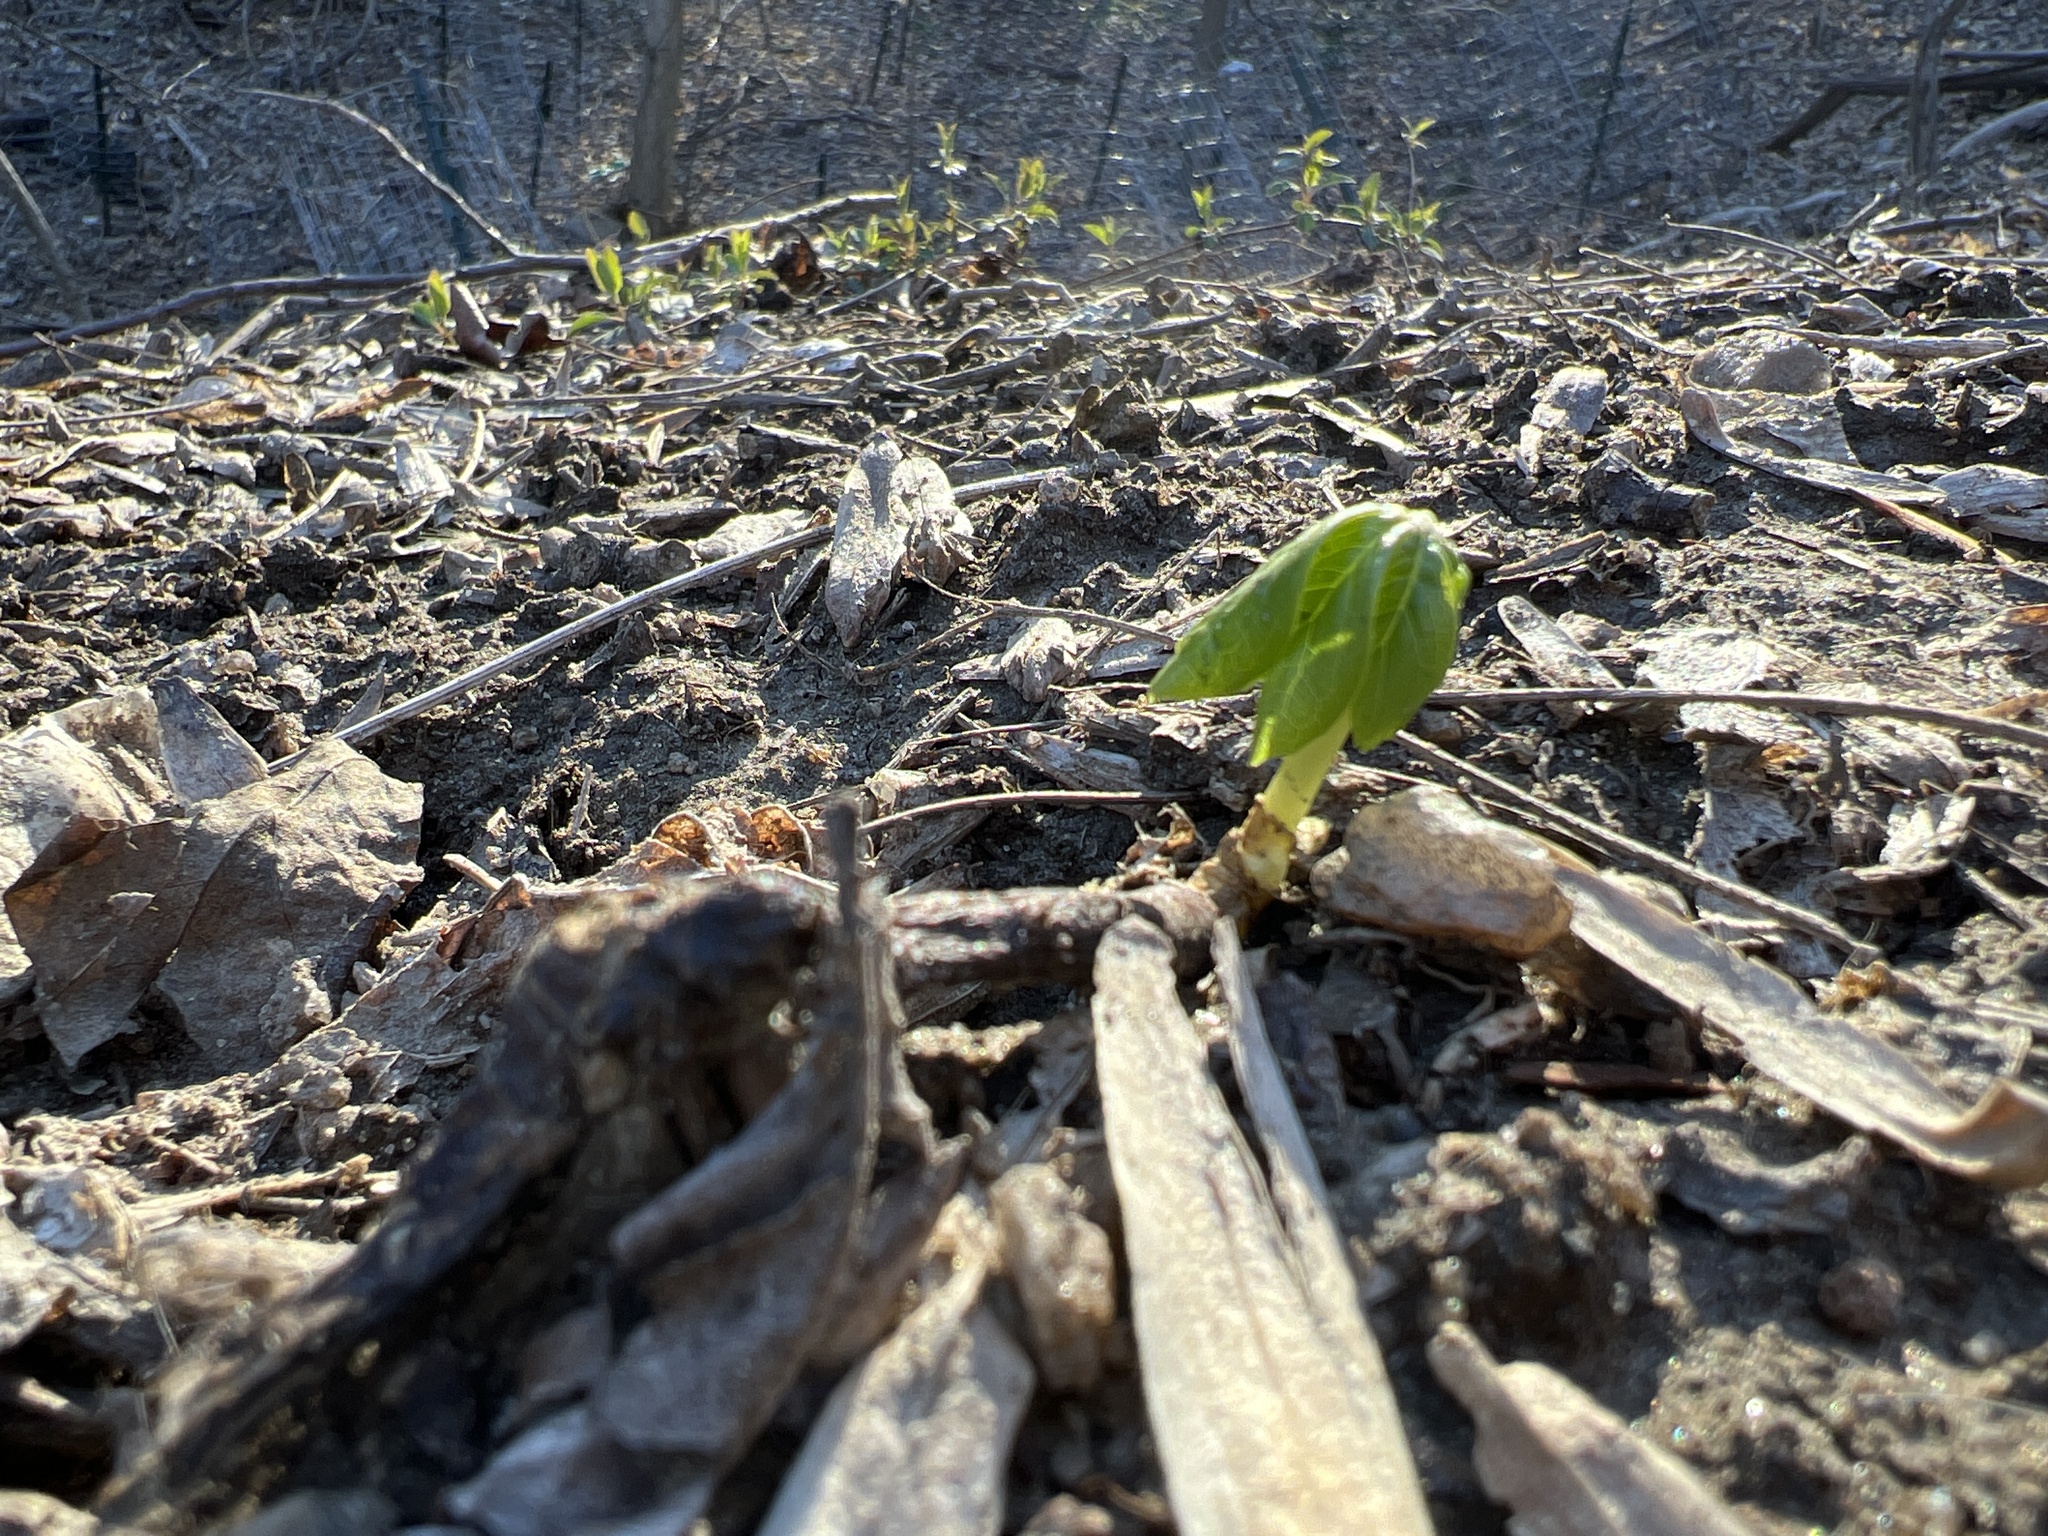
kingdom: Plantae
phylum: Tracheophyta
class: Magnoliopsida
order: Ranunculales
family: Berberidaceae
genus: Podophyllum
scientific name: Podophyllum peltatum
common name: Wild mandrake
